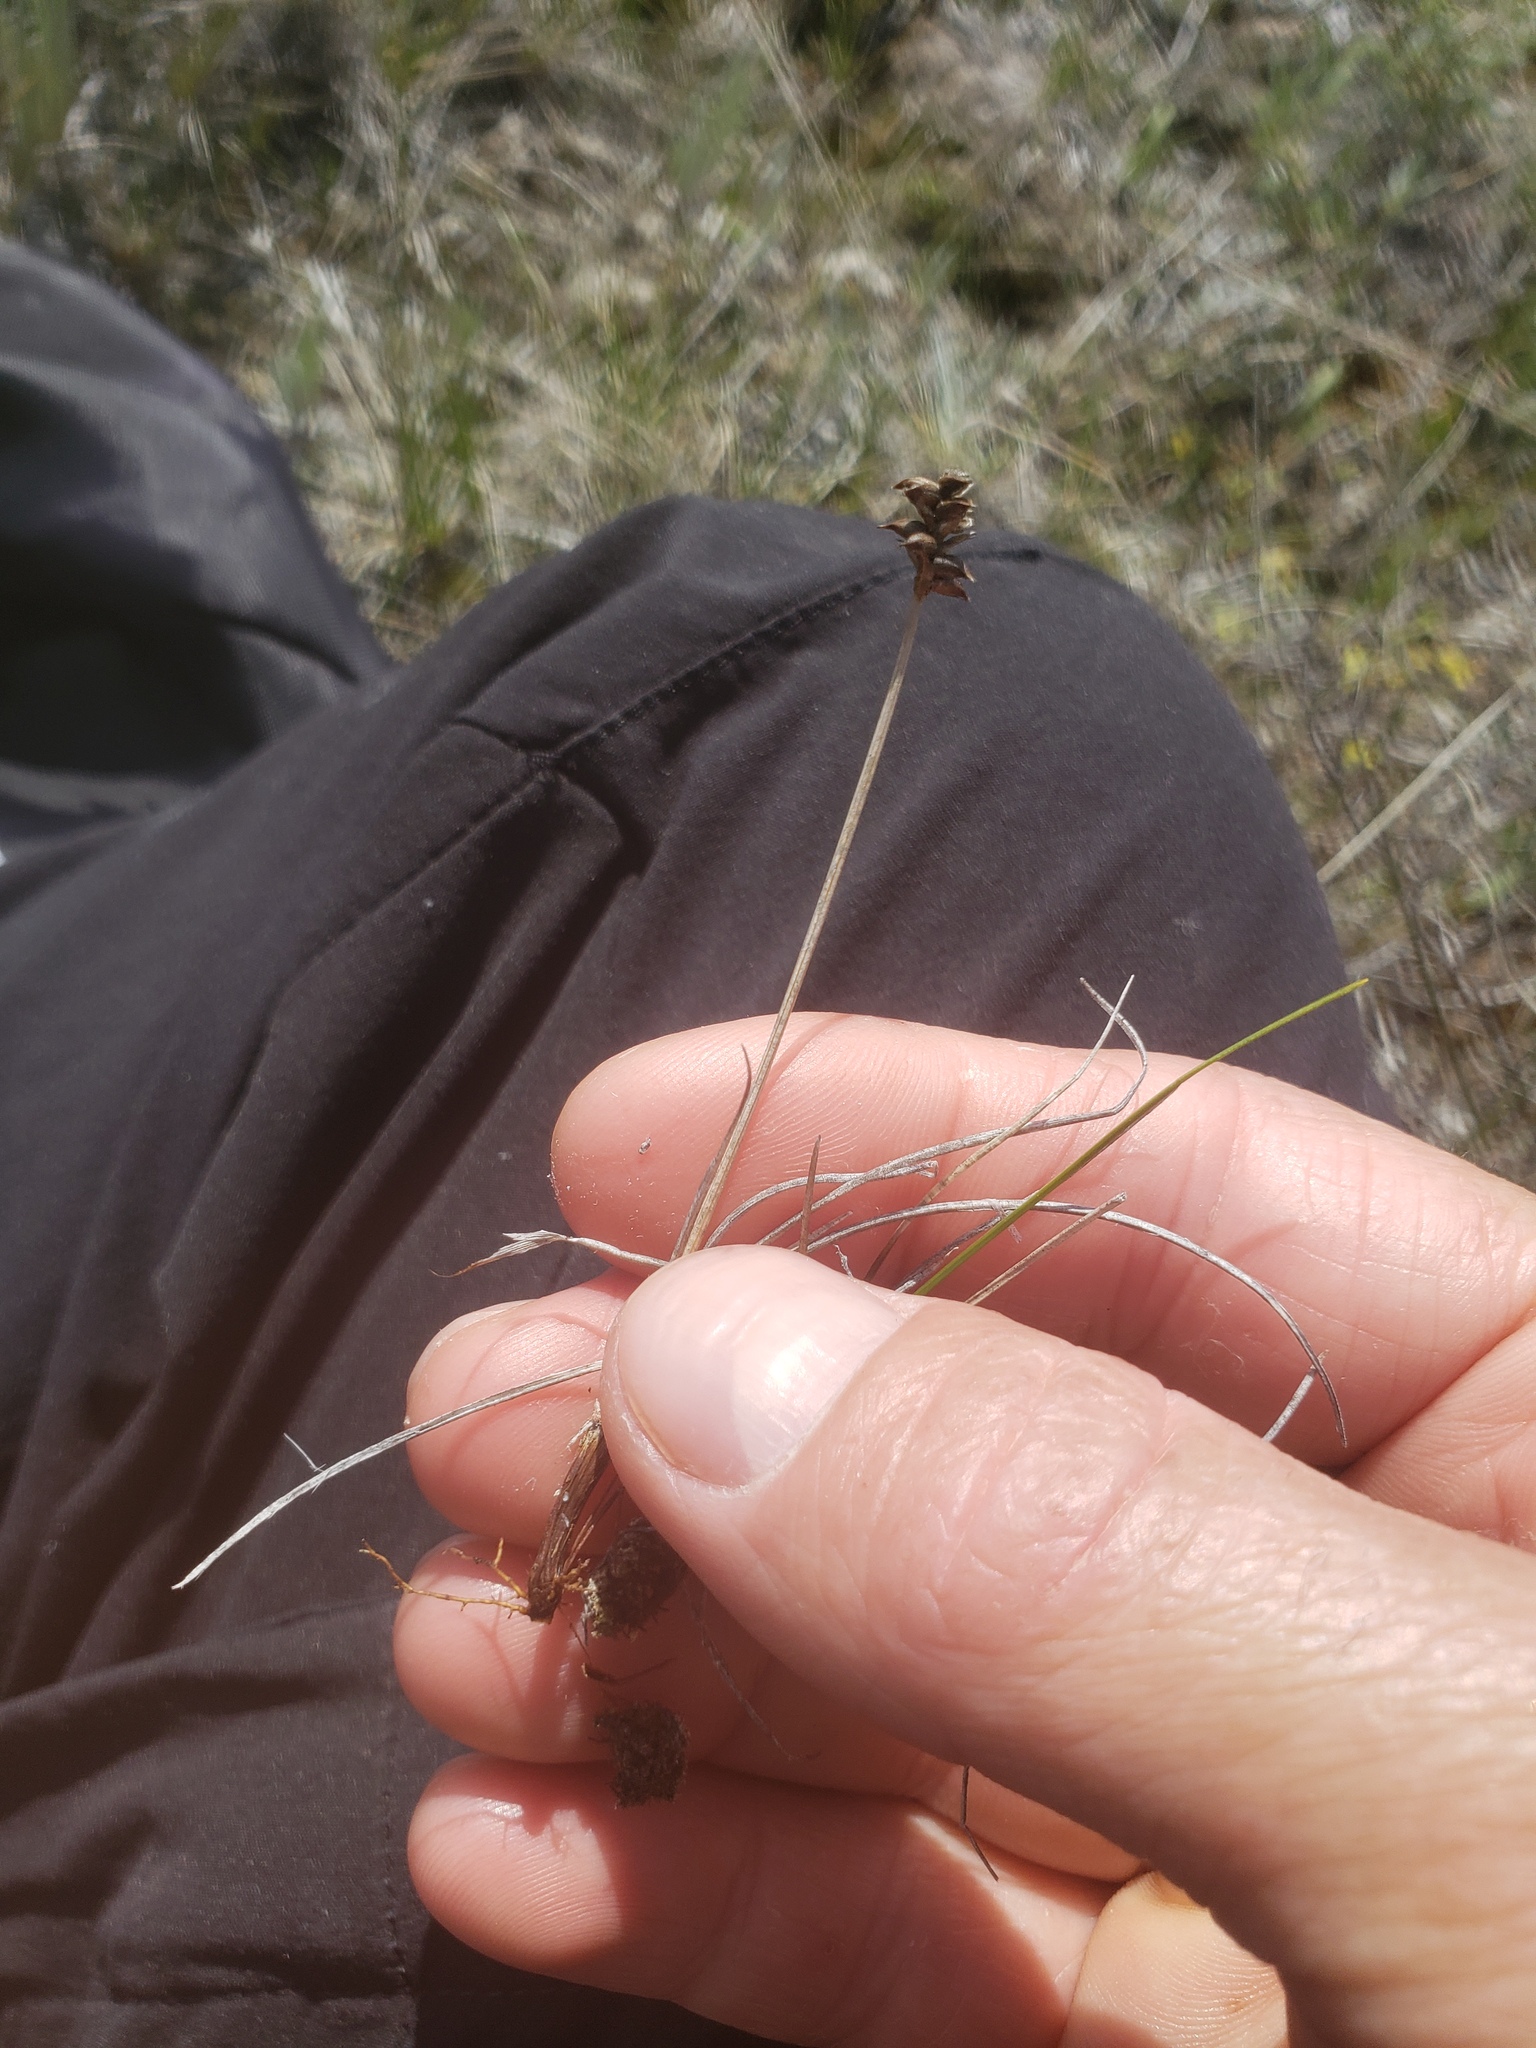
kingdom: Plantae
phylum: Tracheophyta
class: Liliopsida
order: Poales
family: Cyperaceae
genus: Carex
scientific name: Carex alascana
